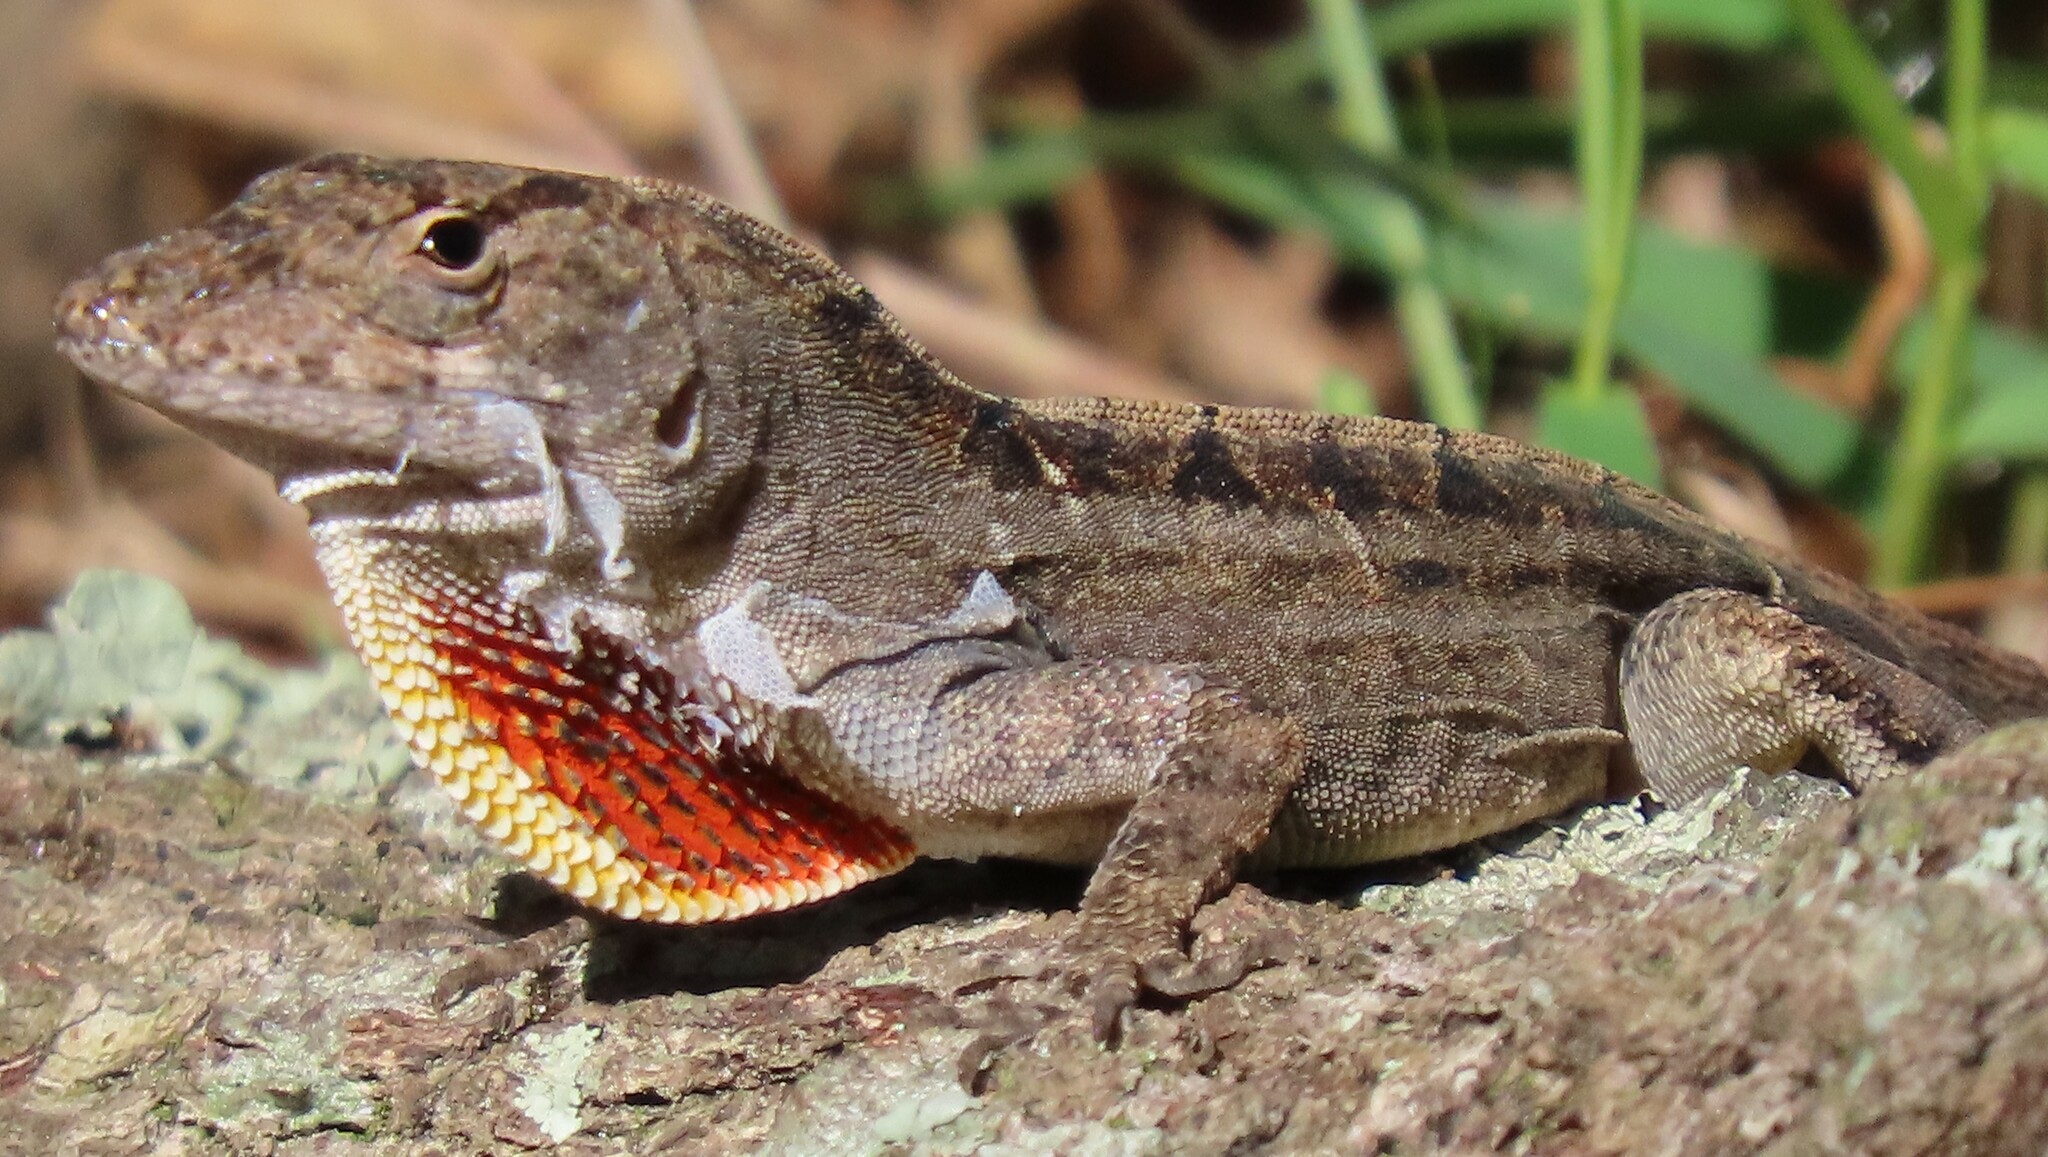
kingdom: Animalia
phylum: Chordata
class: Squamata
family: Dactyloidae
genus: Anolis
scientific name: Anolis sagrei
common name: Brown anole
